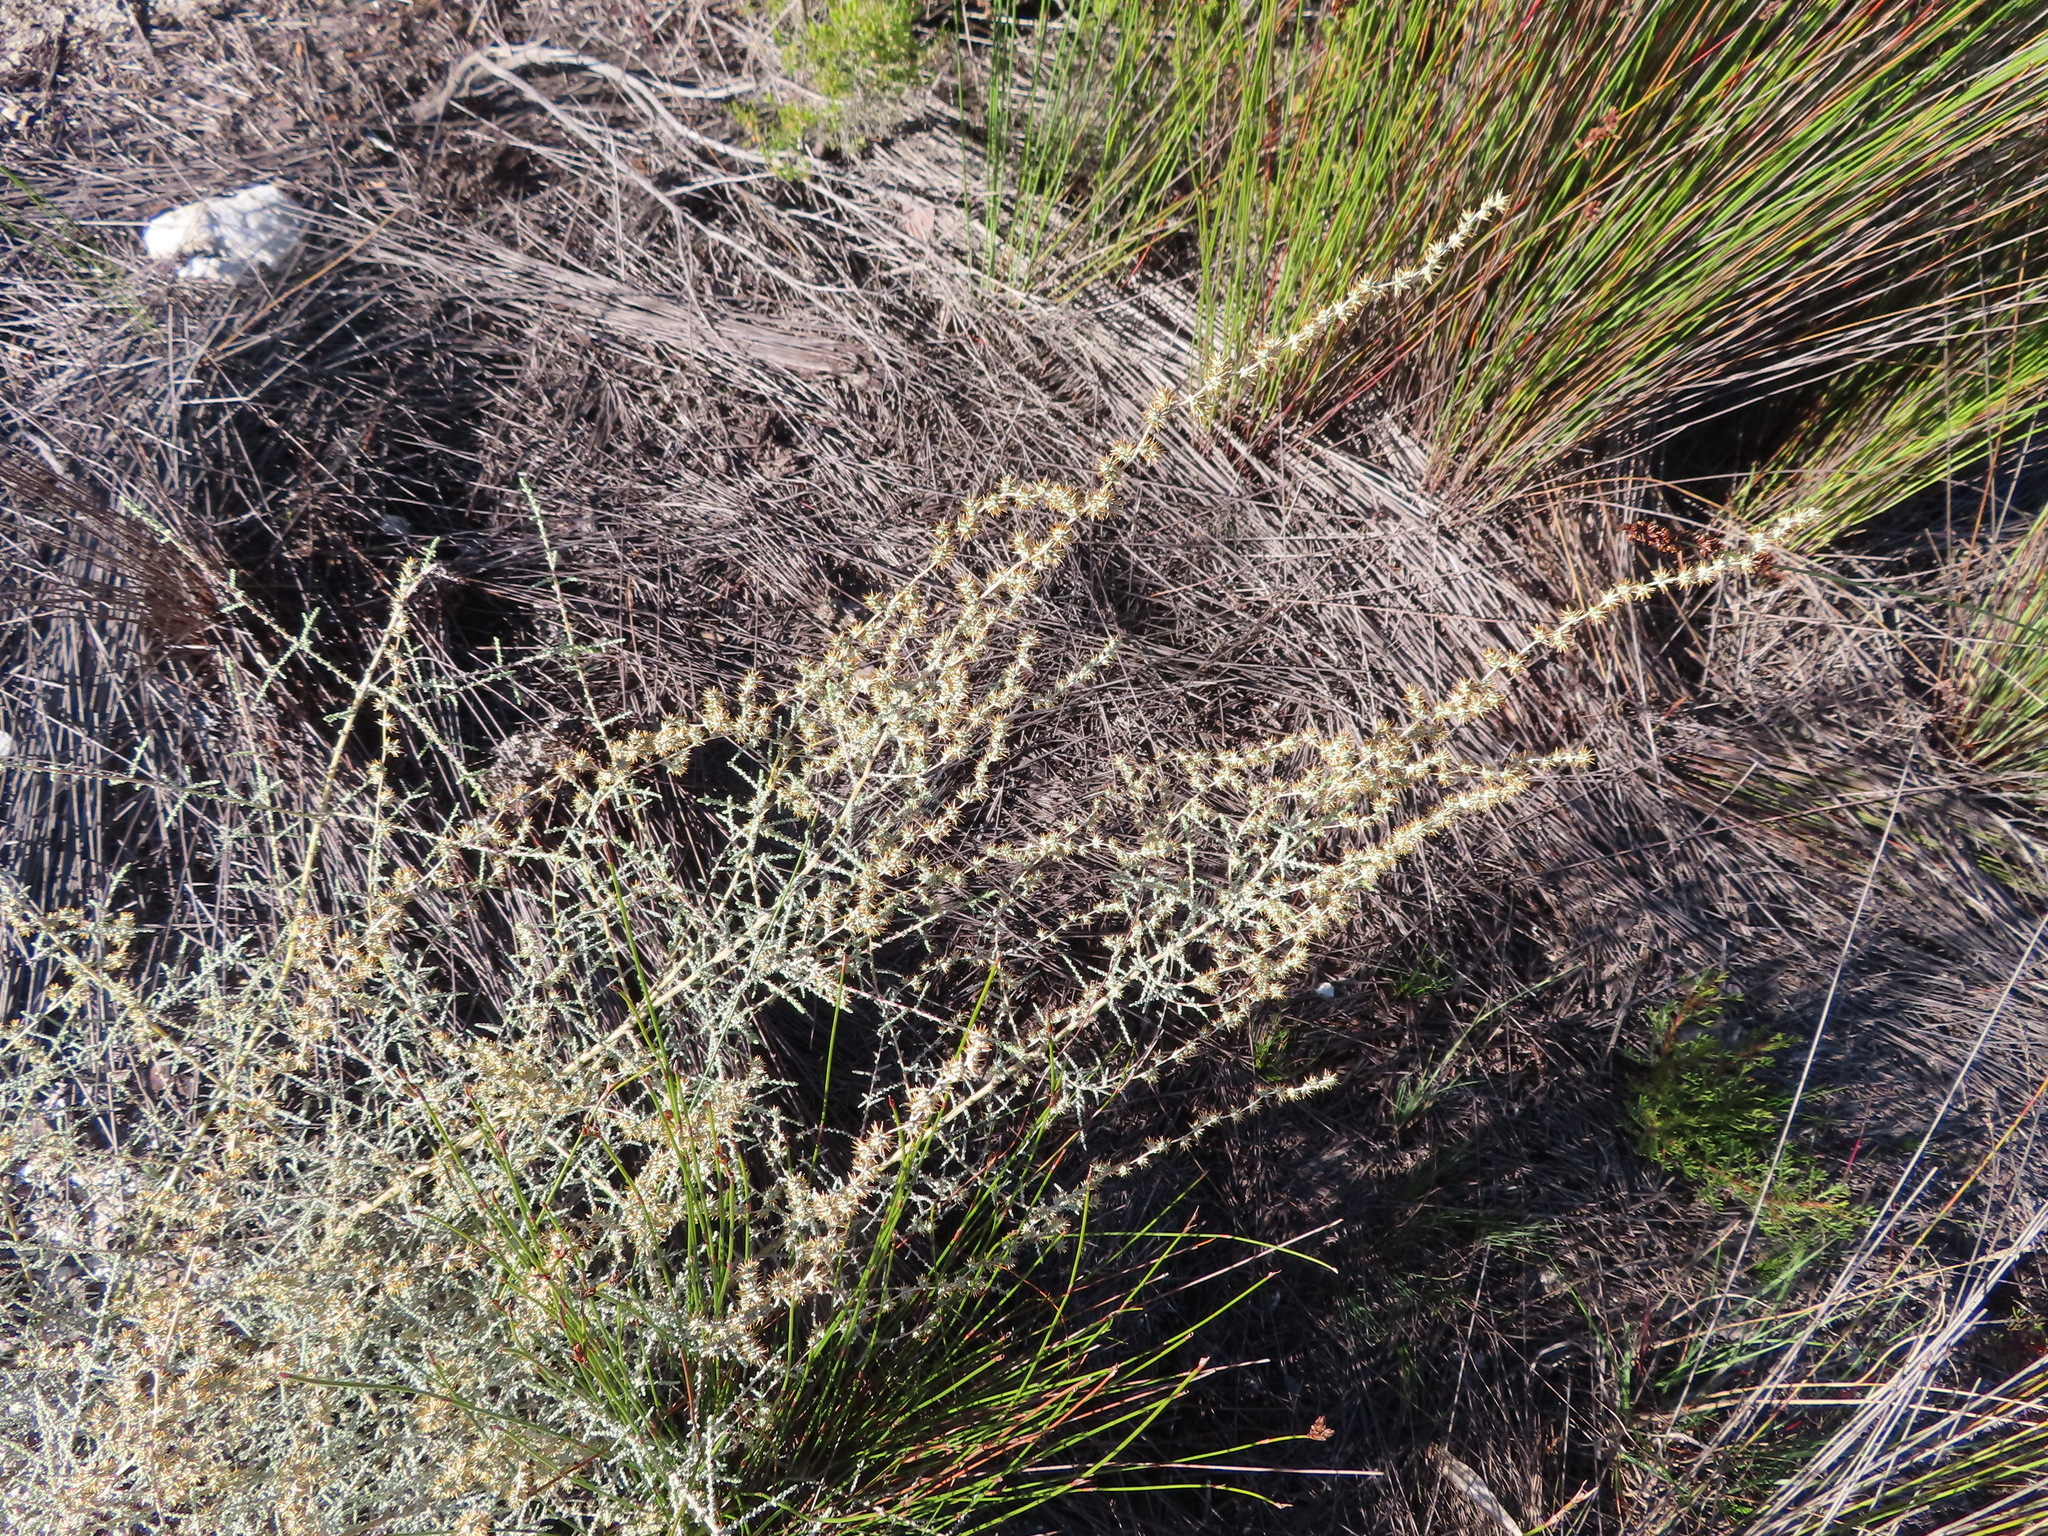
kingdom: Plantae
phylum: Tracheophyta
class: Magnoliopsida
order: Asterales
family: Asteraceae
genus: Seriphium
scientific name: Seriphium plumosum
